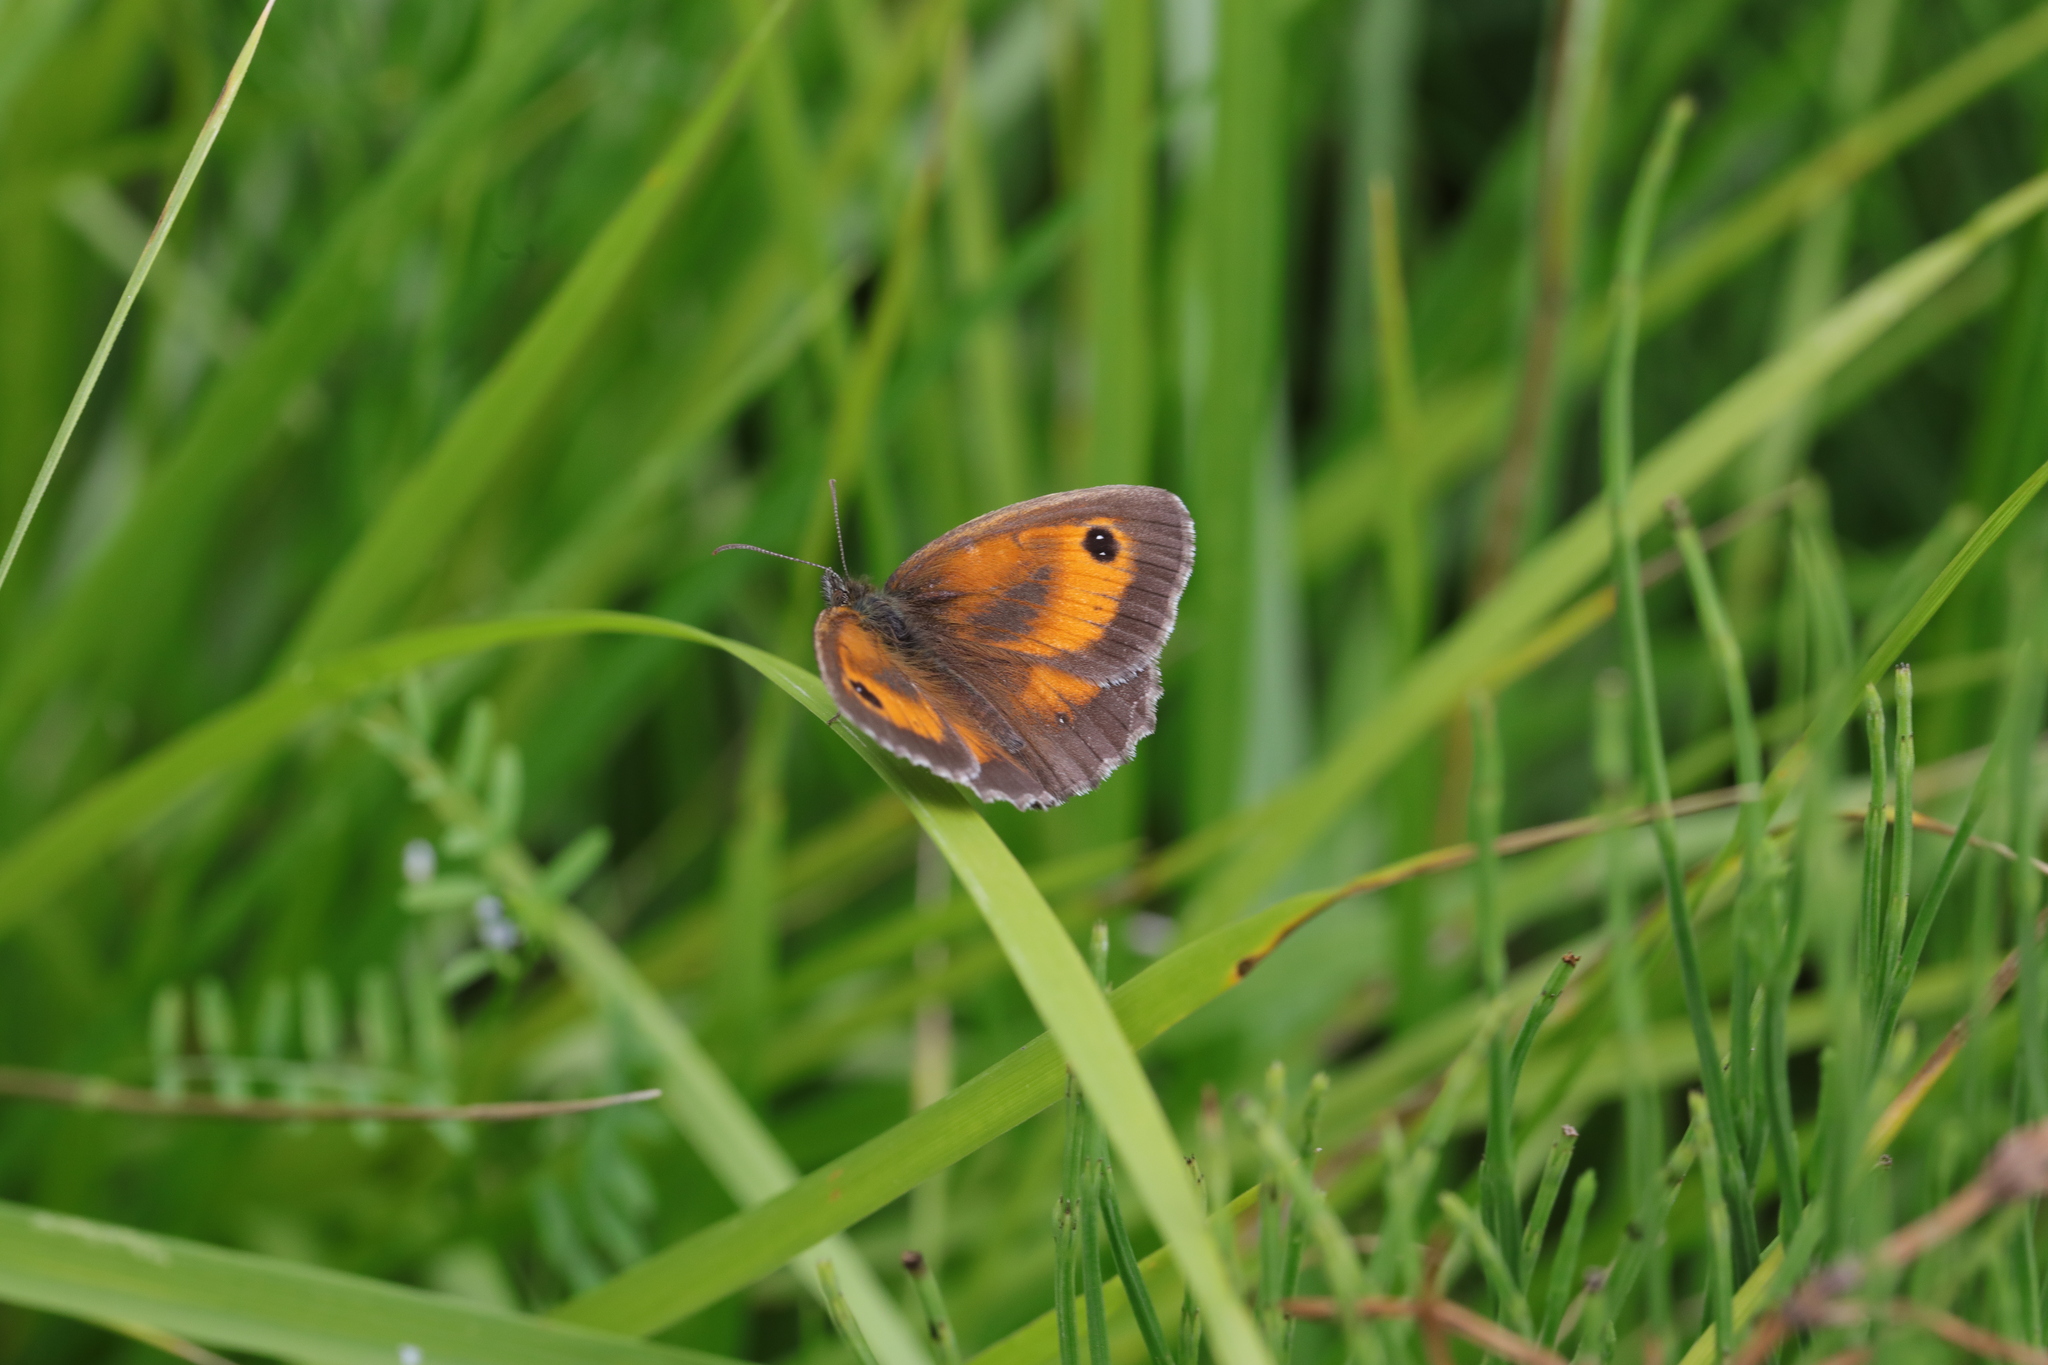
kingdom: Animalia
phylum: Arthropoda
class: Insecta
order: Lepidoptera
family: Nymphalidae
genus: Pyronia
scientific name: Pyronia tithonus
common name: Gatekeeper
